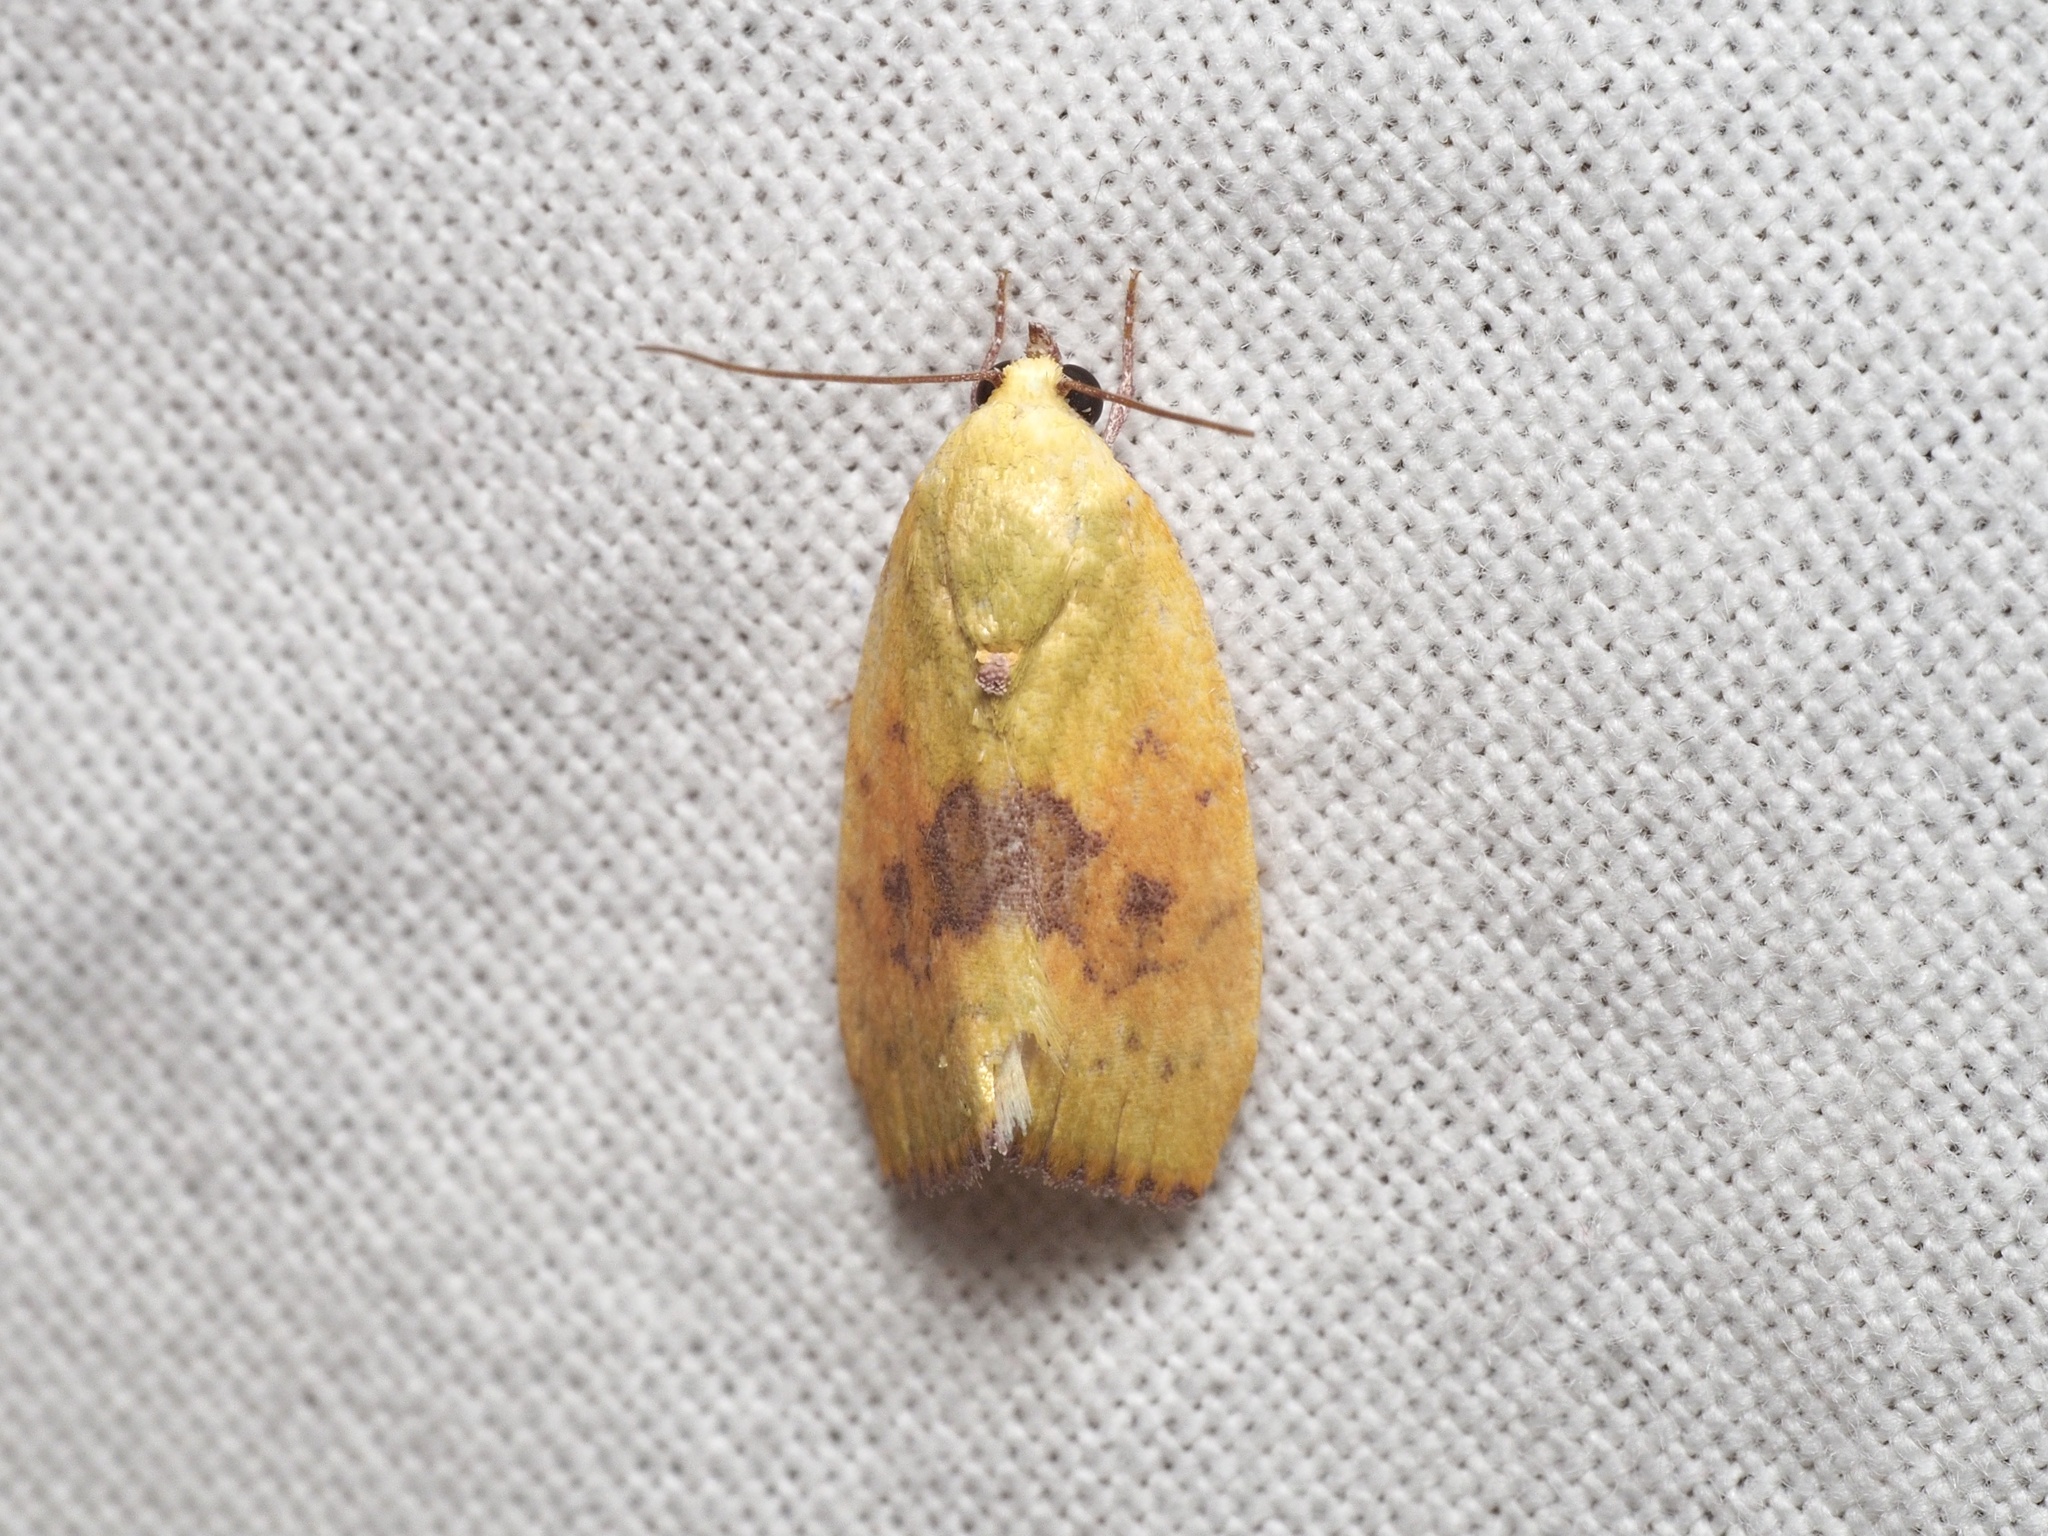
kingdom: Animalia
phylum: Arthropoda
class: Insecta
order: Lepidoptera
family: Nolidae
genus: Earias
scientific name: Earias biplaga
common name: Spiny bollworm
